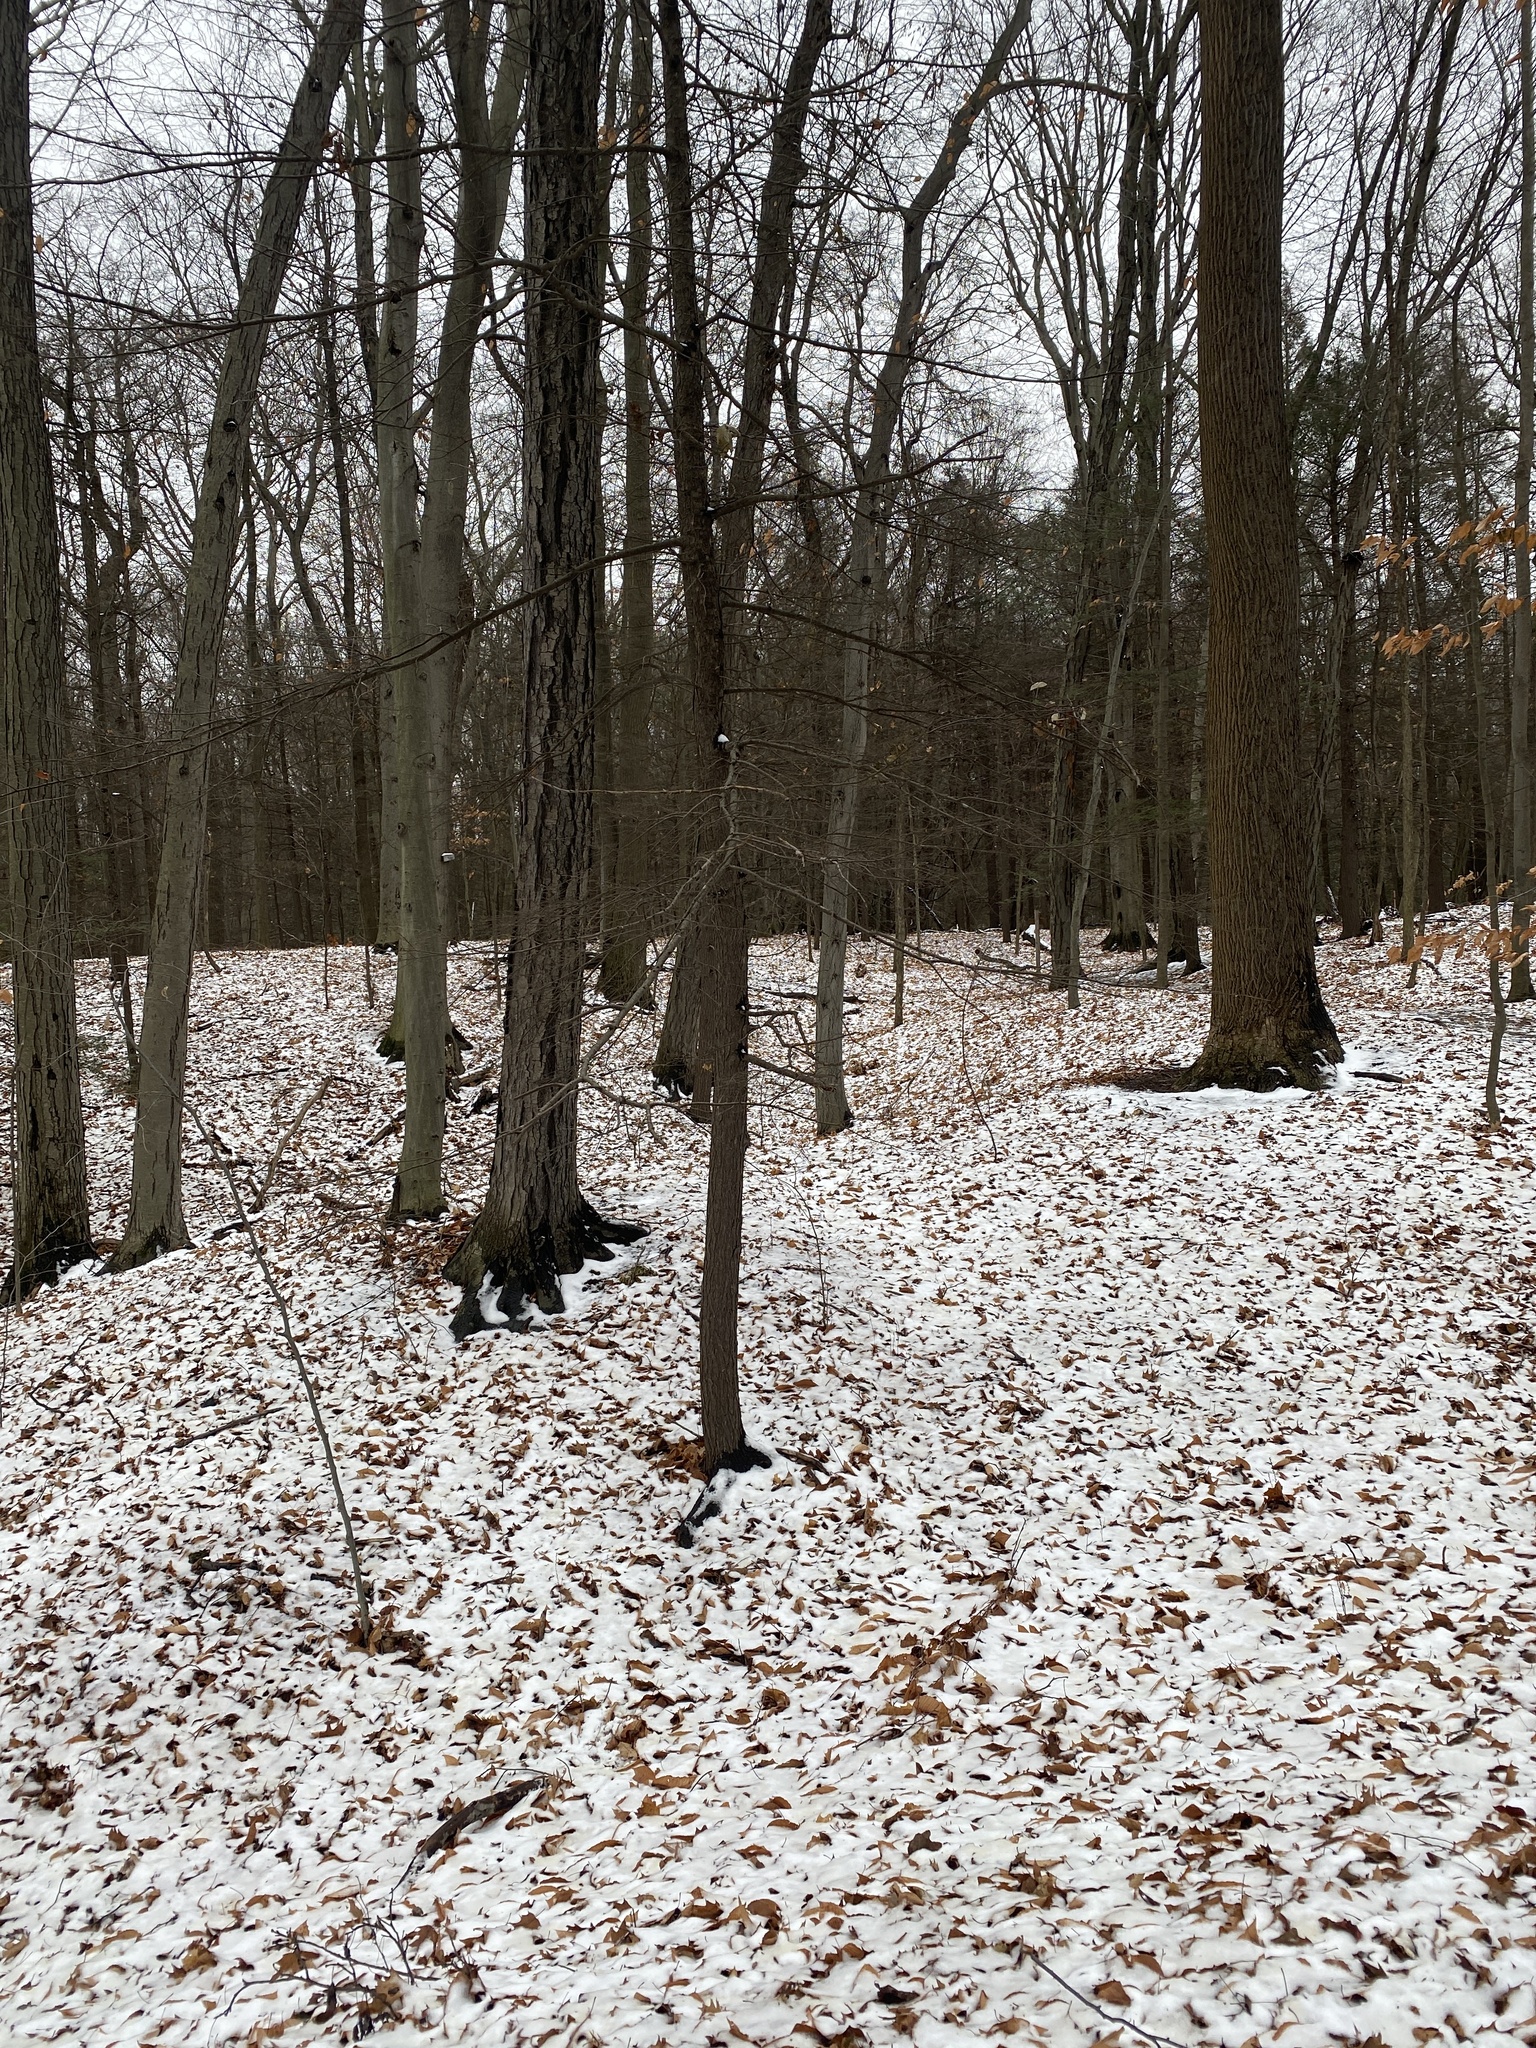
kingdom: Plantae
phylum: Tracheophyta
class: Polypodiopsida
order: Polypodiales
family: Dryopteridaceae
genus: Polystichum
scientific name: Polystichum acrostichoides
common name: Christmas fern
